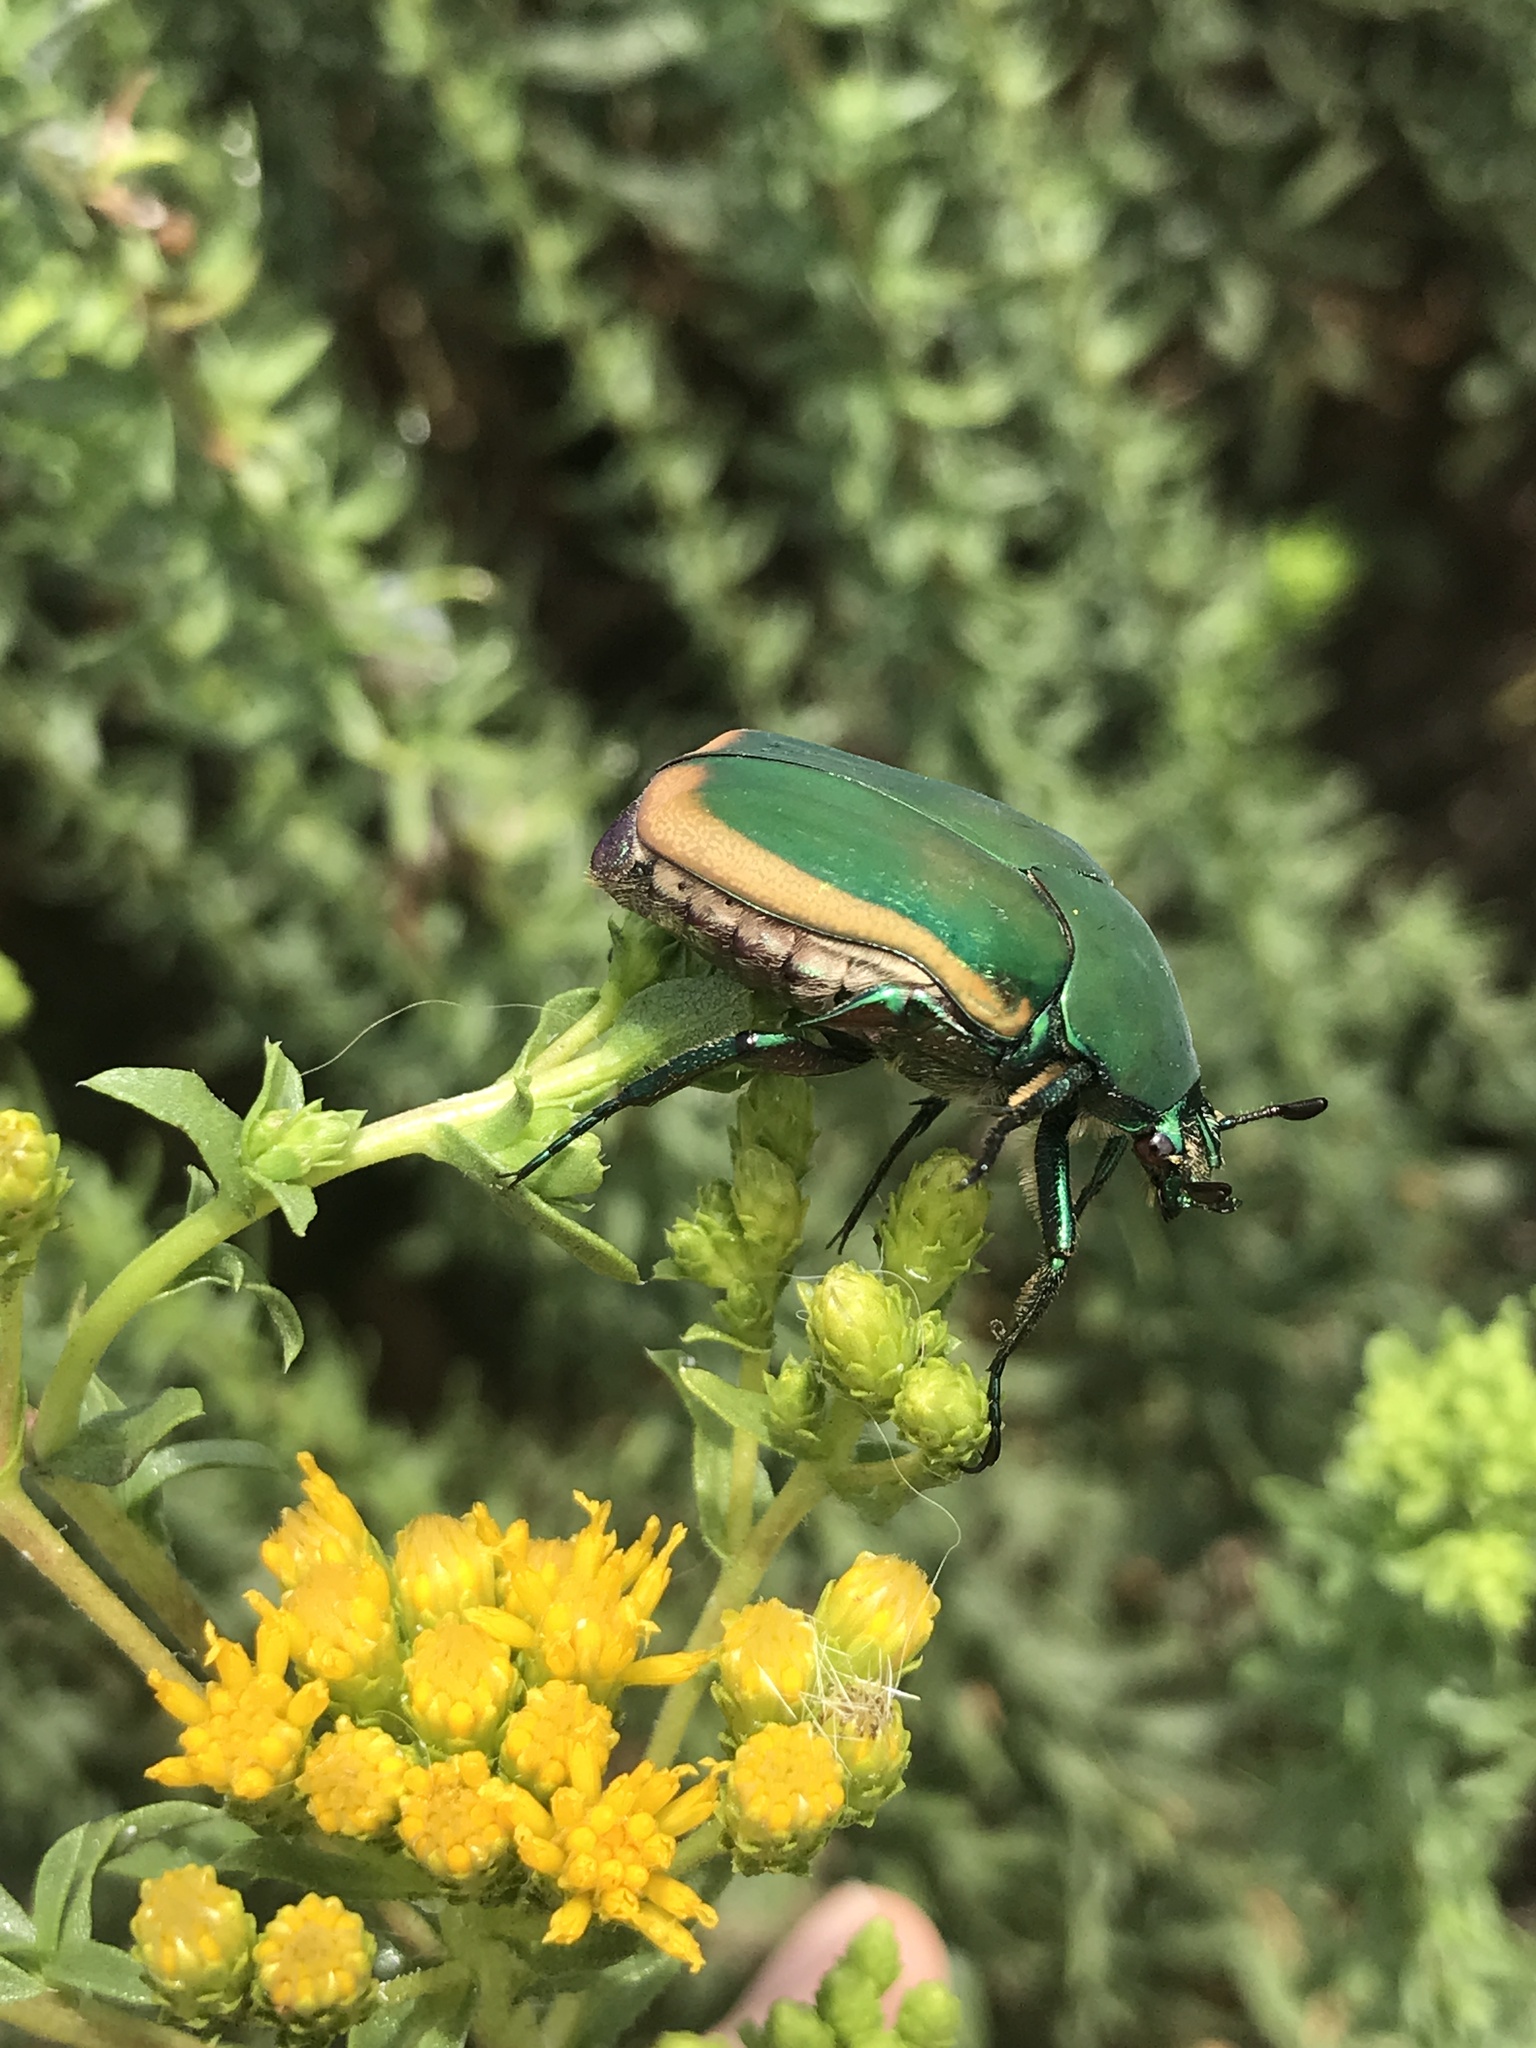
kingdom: Animalia
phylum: Arthropoda
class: Insecta
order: Coleoptera
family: Scarabaeidae
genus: Cotinis
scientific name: Cotinis mutabilis
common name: Figeater beetle
